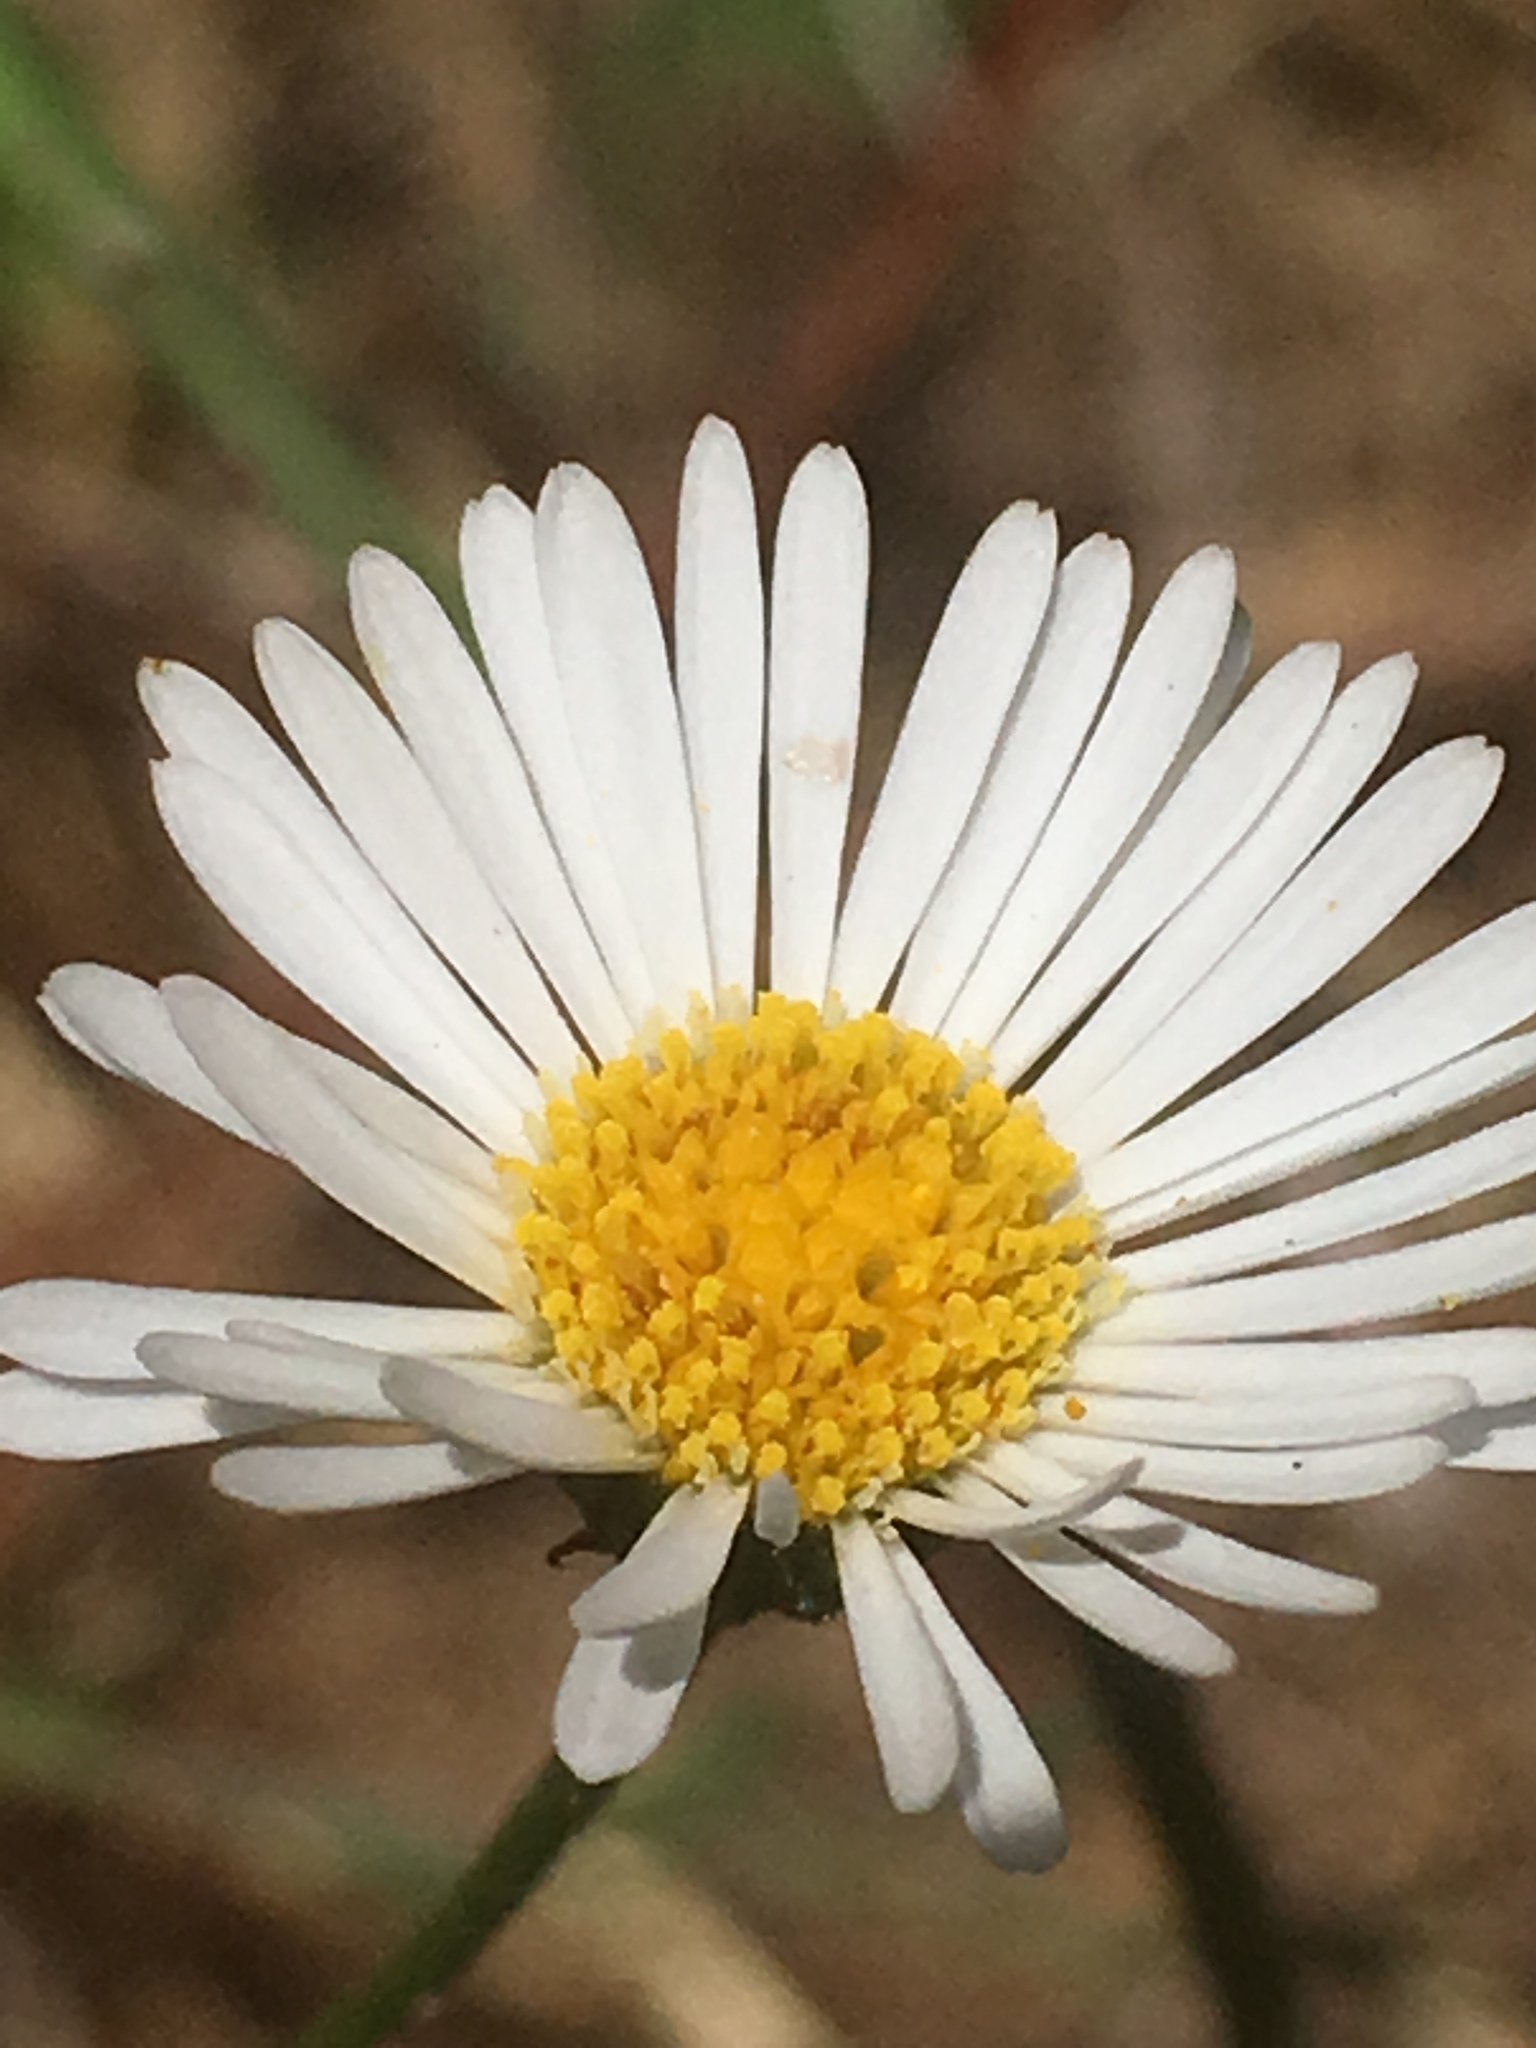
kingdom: Plantae
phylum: Tracheophyta
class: Magnoliopsida
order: Asterales
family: Asteraceae
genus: Erigeron
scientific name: Erigeron karvinskianus
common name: Mexican fleabane
